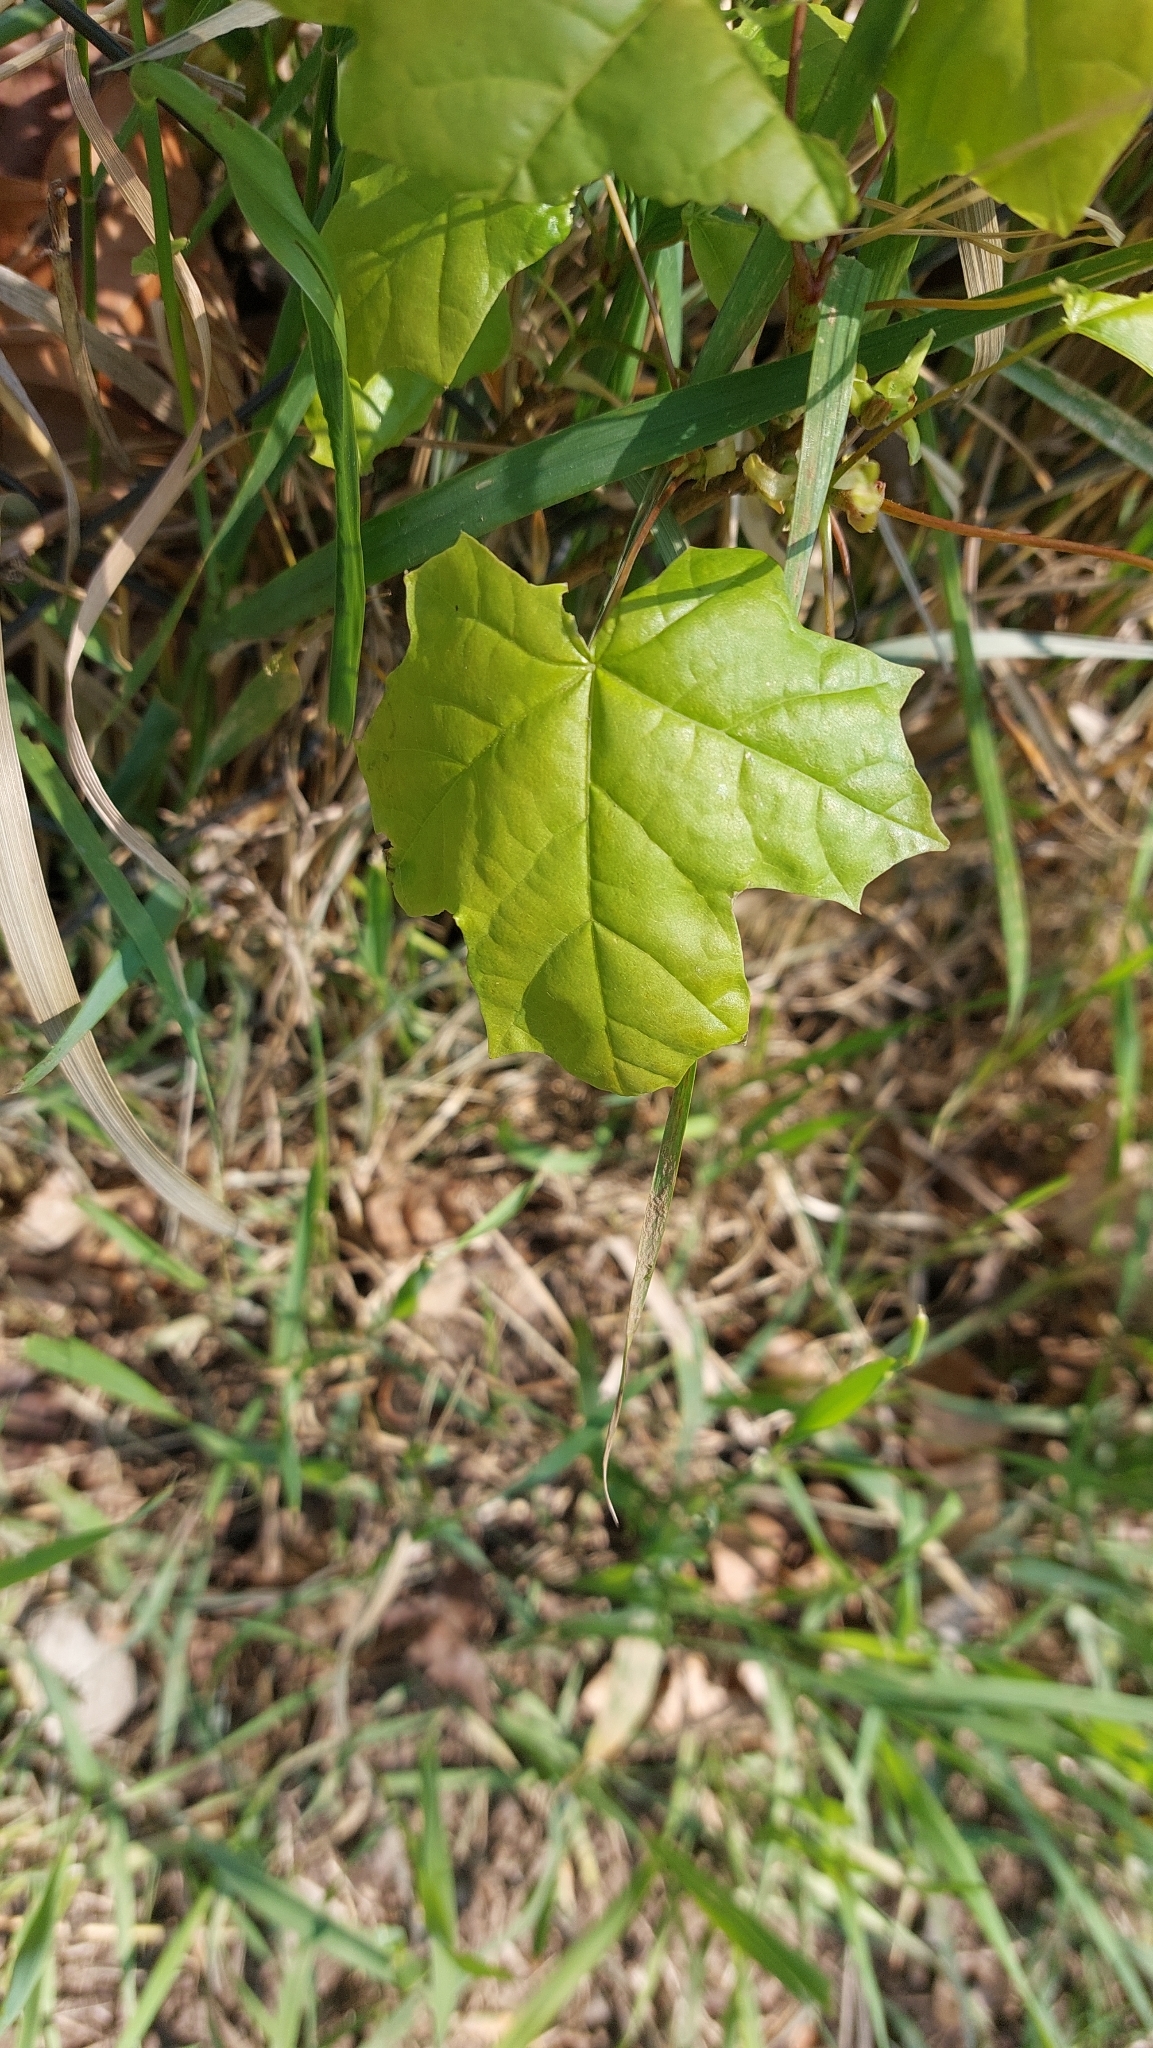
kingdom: Plantae
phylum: Tracheophyta
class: Magnoliopsida
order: Sapindales
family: Sapindaceae
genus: Acer
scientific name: Acer platanoides
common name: Norway maple
